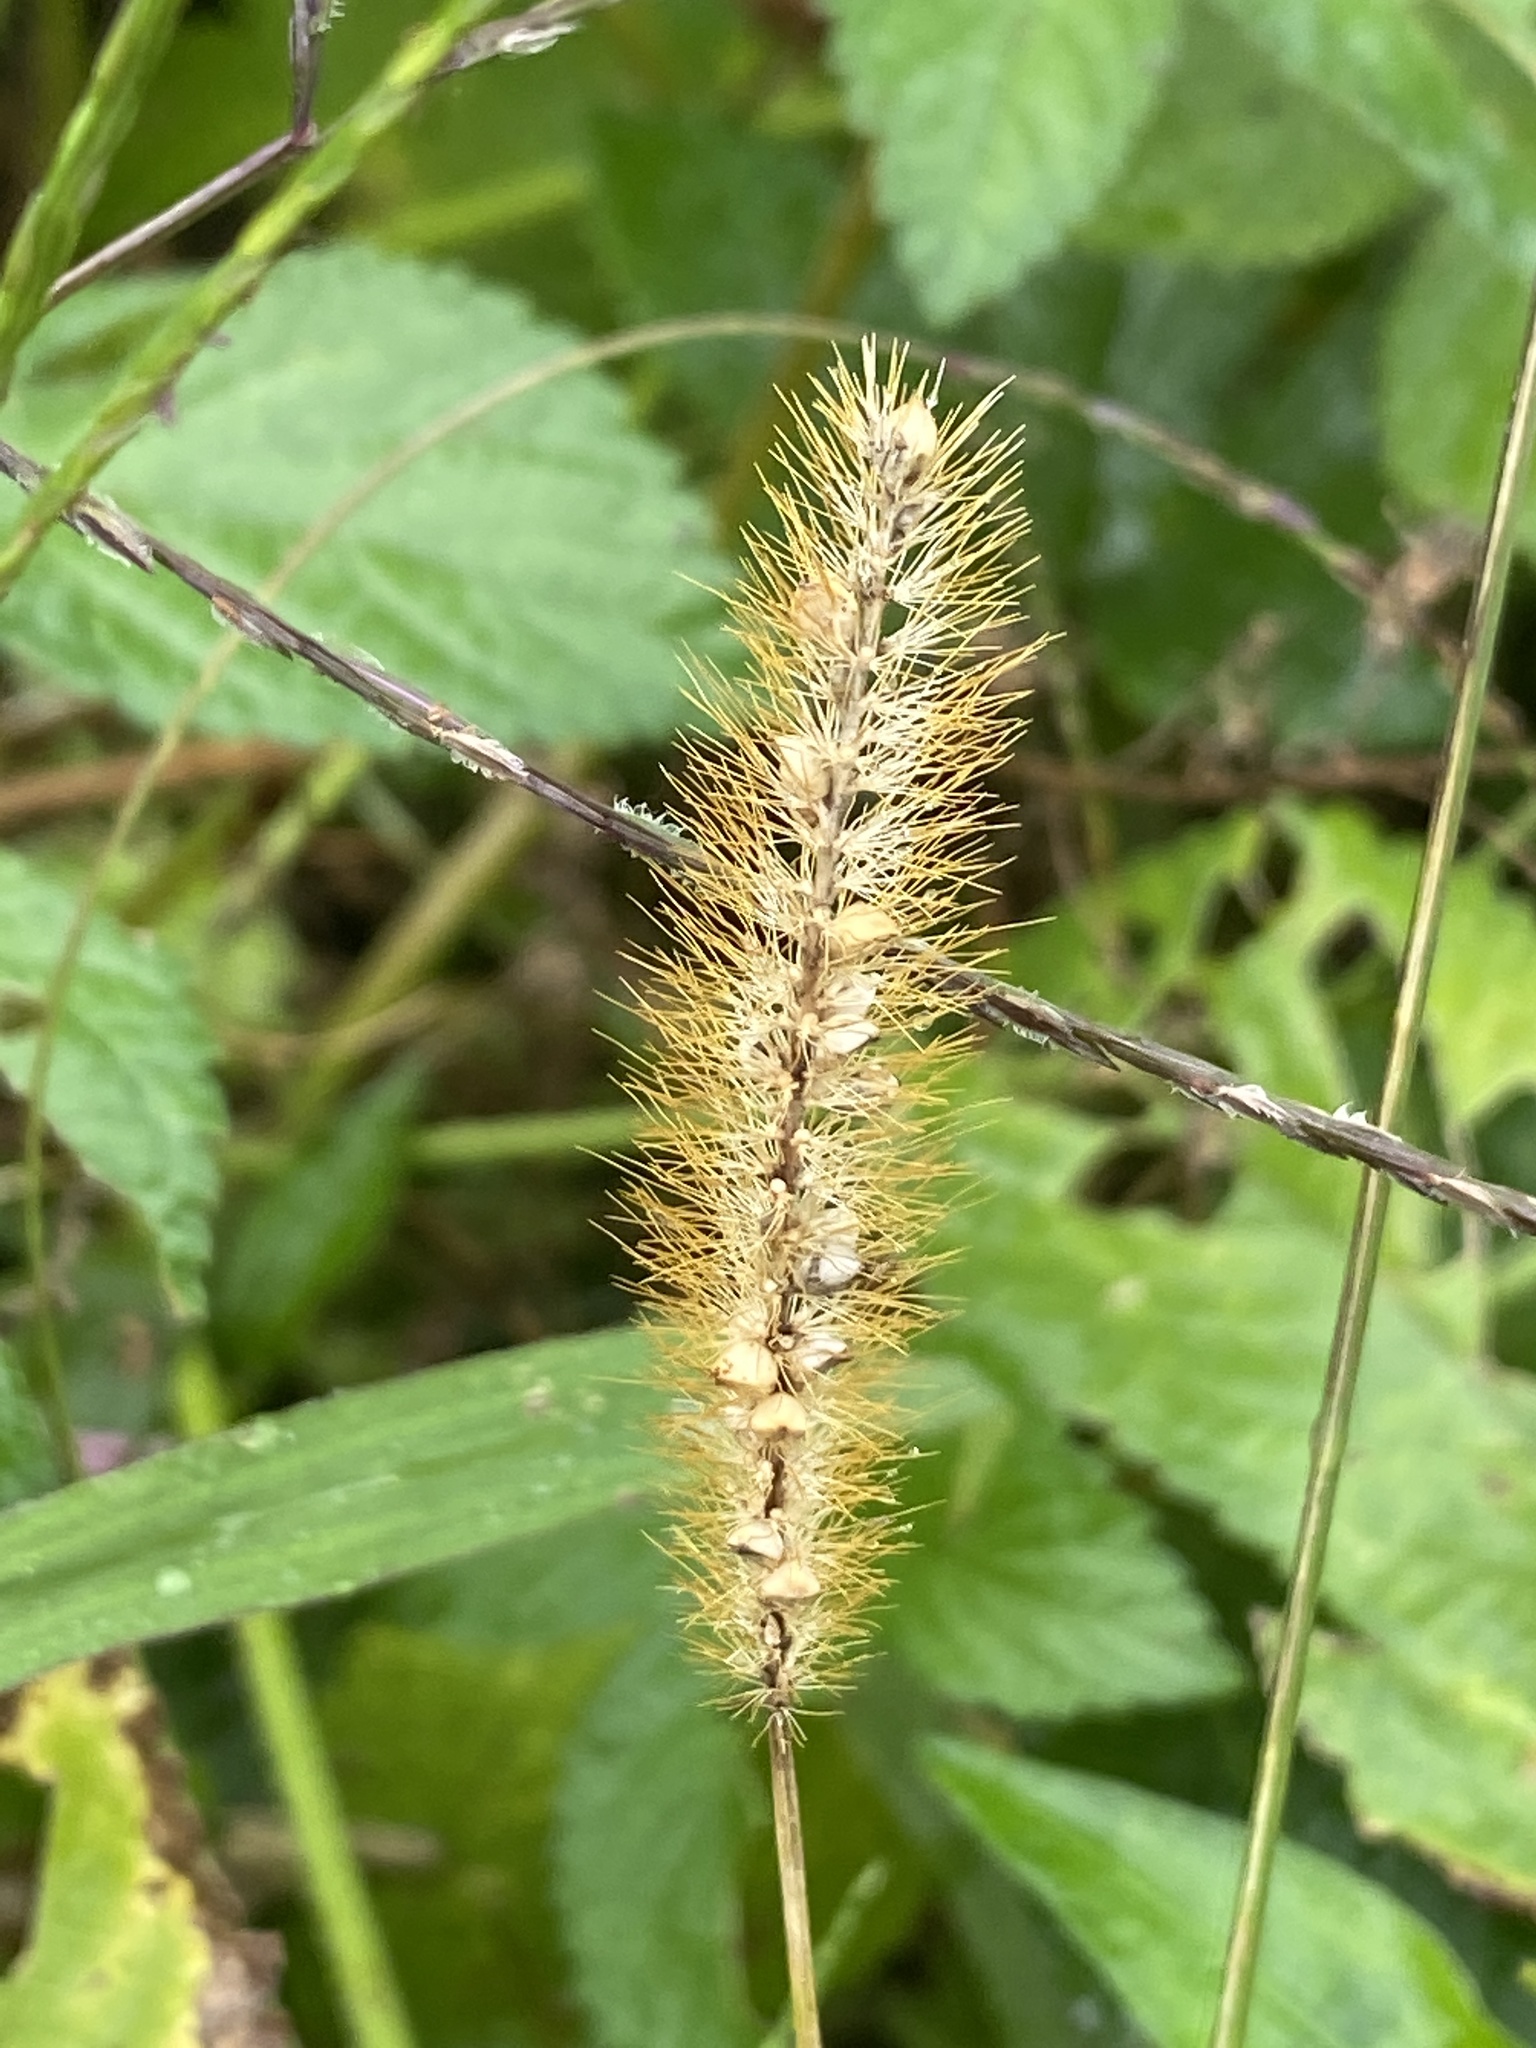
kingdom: Plantae
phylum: Tracheophyta
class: Liliopsida
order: Poales
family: Poaceae
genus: Setaria
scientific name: Setaria pumila
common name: Yellow bristle-grass
